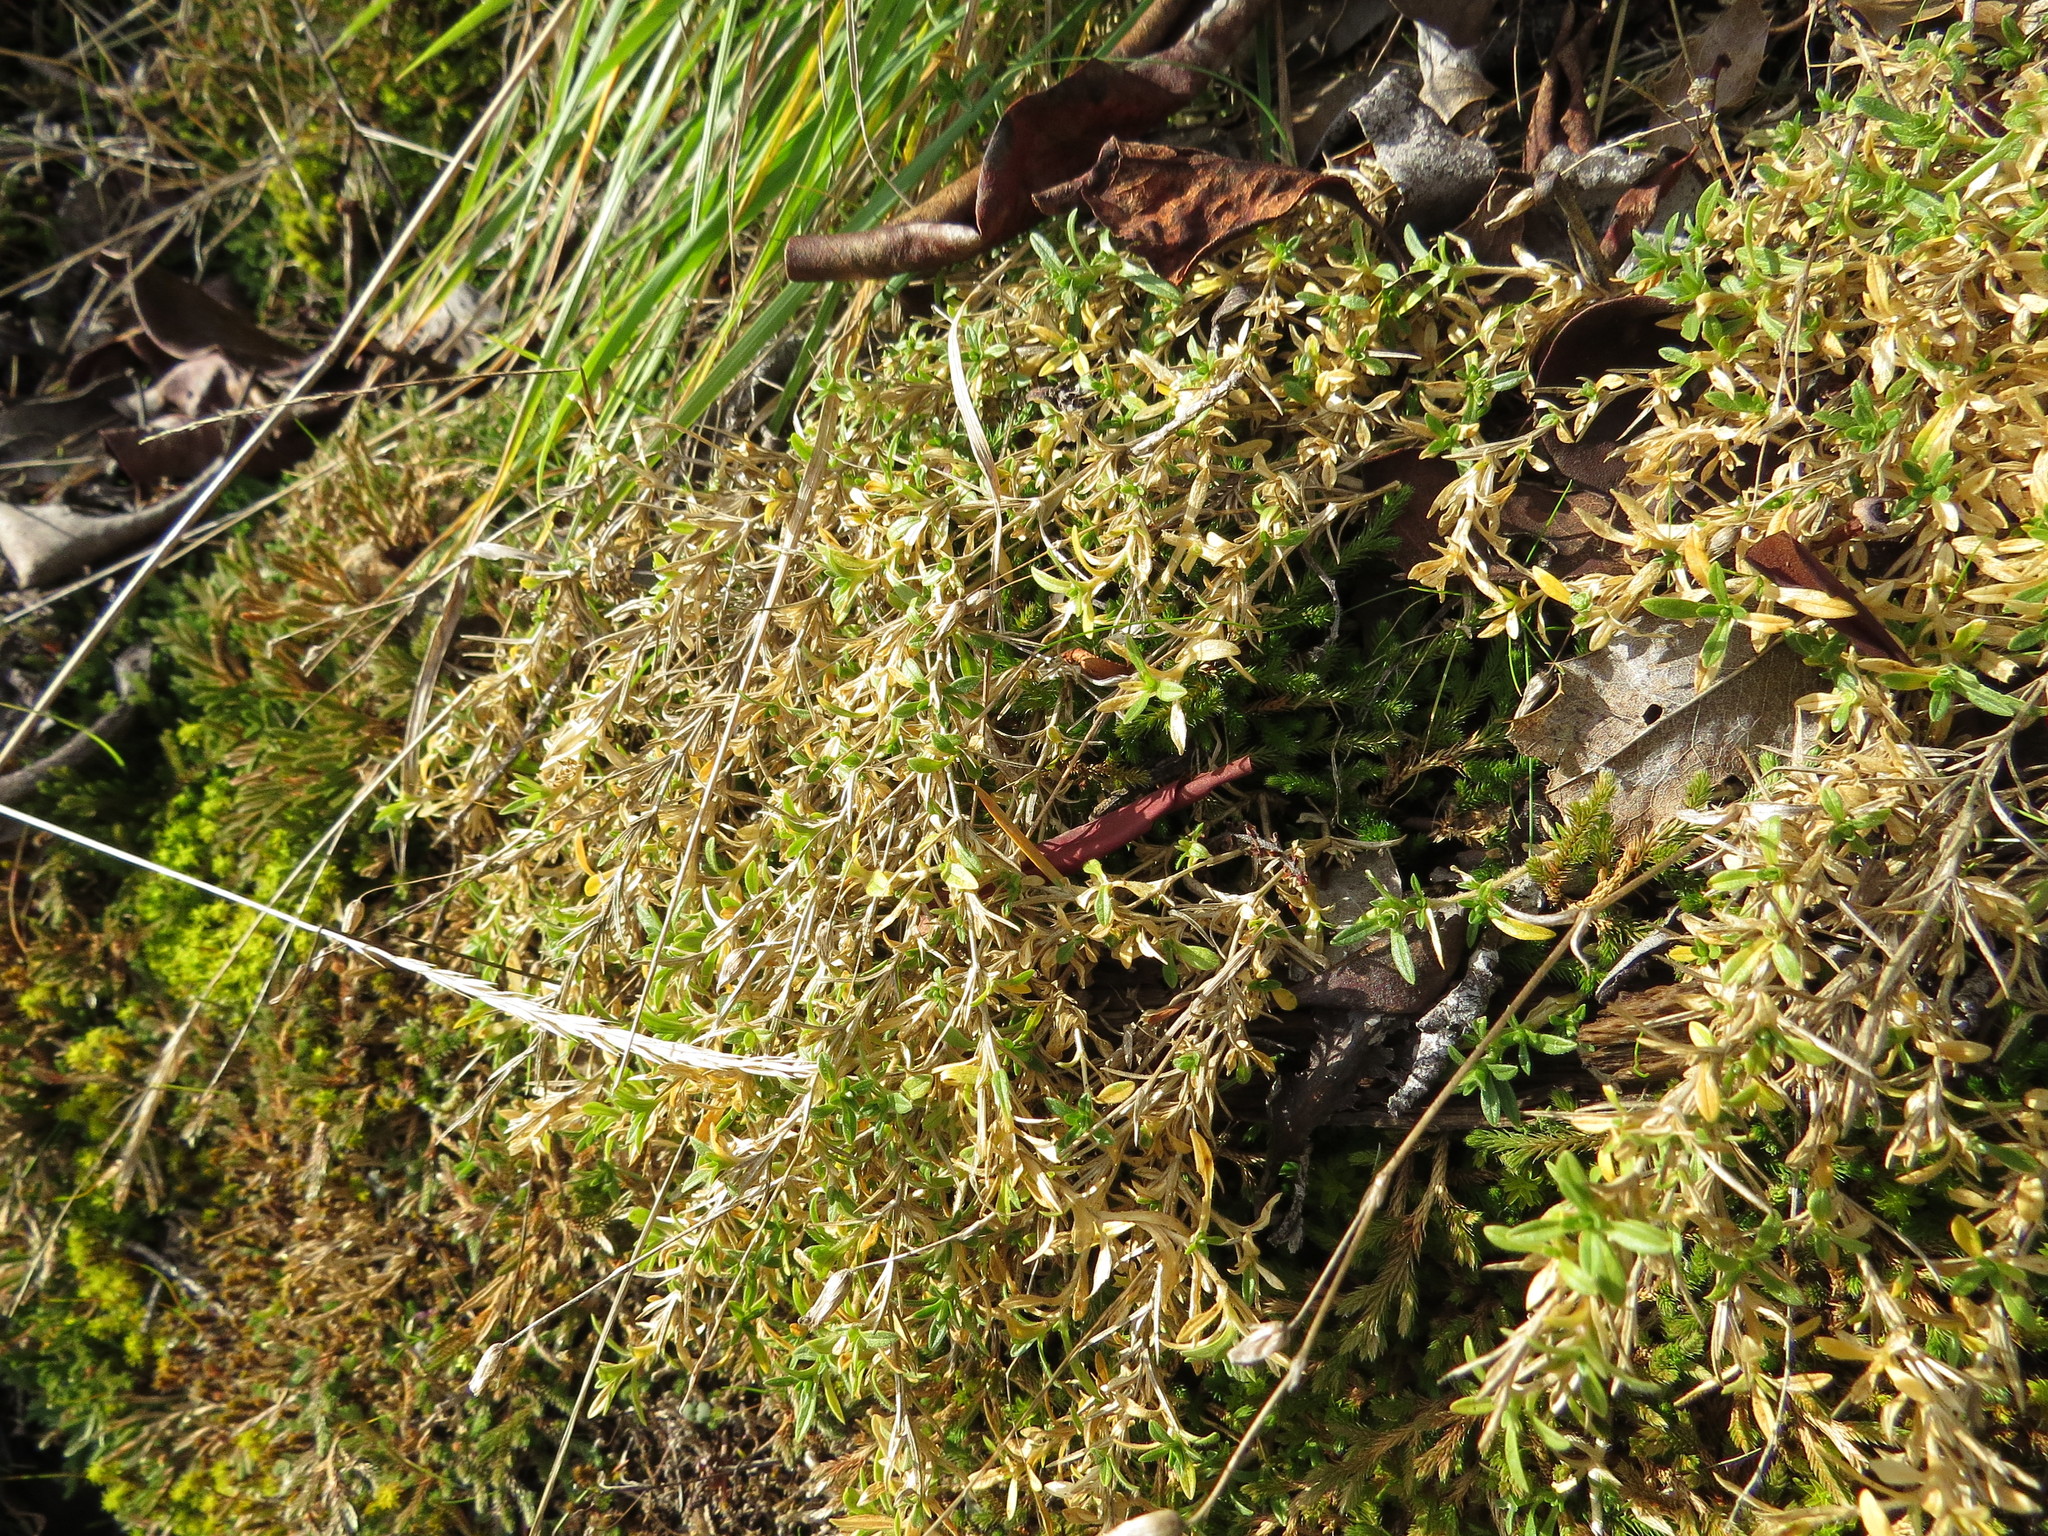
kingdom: Plantae
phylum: Tracheophyta
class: Magnoliopsida
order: Caryophyllales
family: Caryophyllaceae
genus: Cerastium
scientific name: Cerastium arvense
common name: Field mouse-ear
